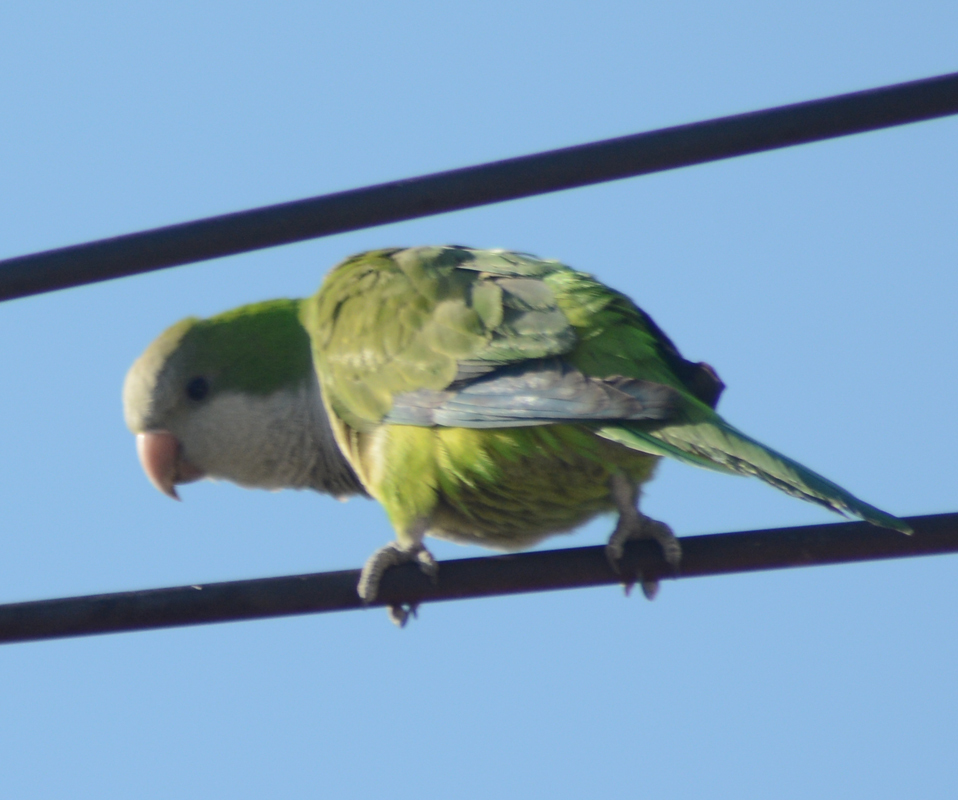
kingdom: Animalia
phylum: Chordata
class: Aves
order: Psittaciformes
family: Psittacidae
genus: Myiopsitta
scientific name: Myiopsitta monachus
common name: Monk parakeet
